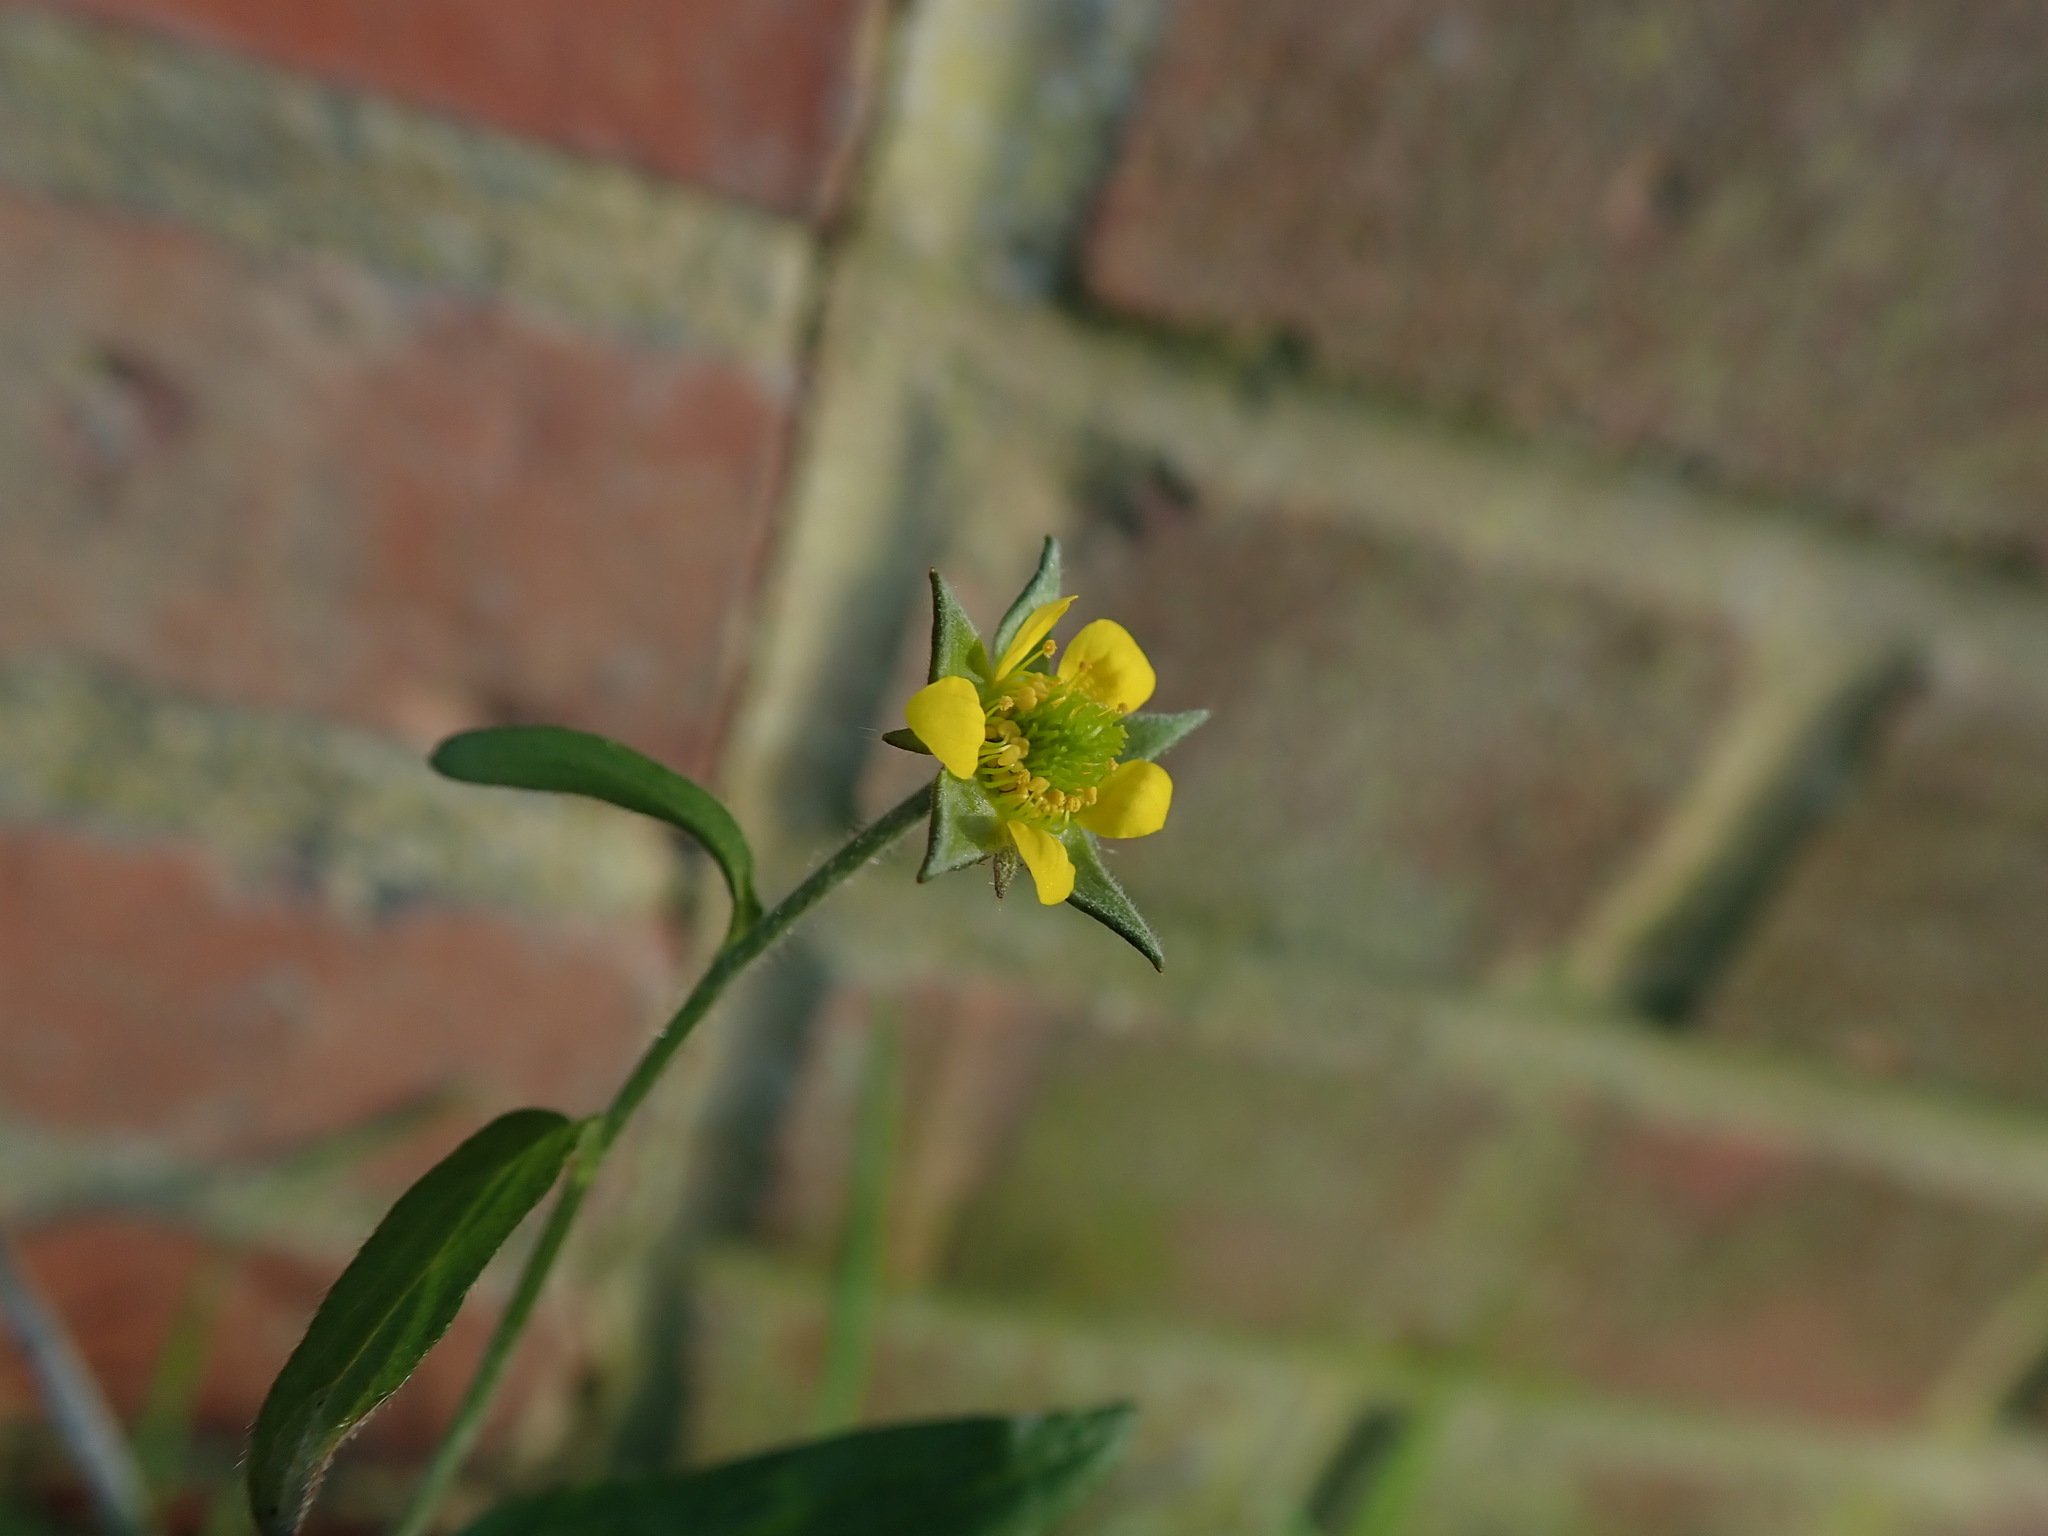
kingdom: Plantae
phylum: Tracheophyta
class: Magnoliopsida
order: Rosales
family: Rosaceae
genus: Geum
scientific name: Geum urbanum
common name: Wood avens
